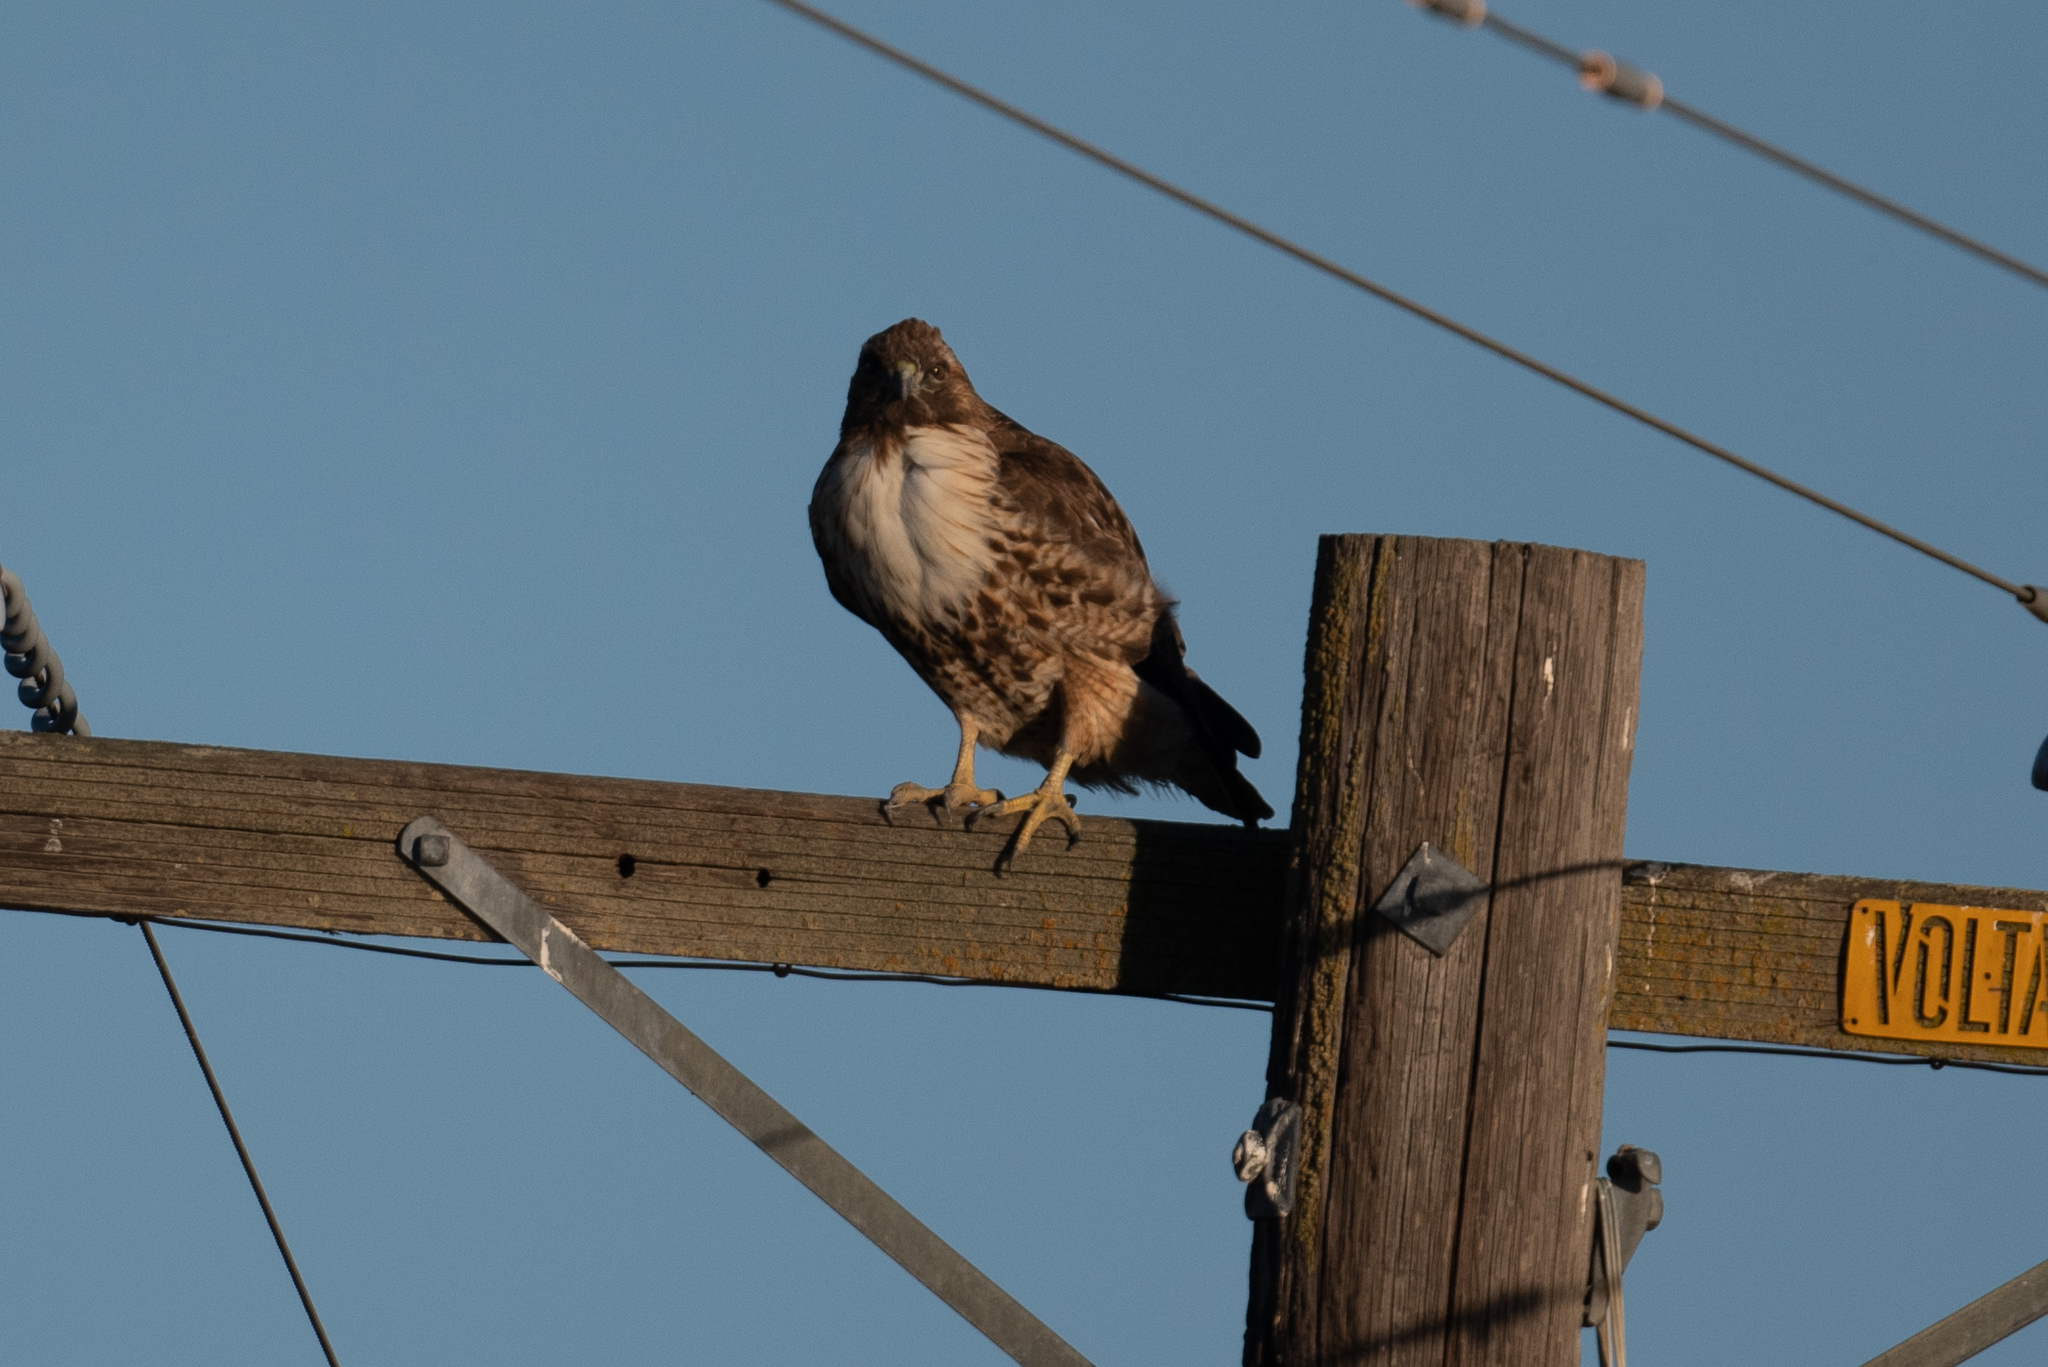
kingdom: Animalia
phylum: Chordata
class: Aves
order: Accipitriformes
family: Accipitridae
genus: Buteo
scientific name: Buteo jamaicensis
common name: Red-tailed hawk
